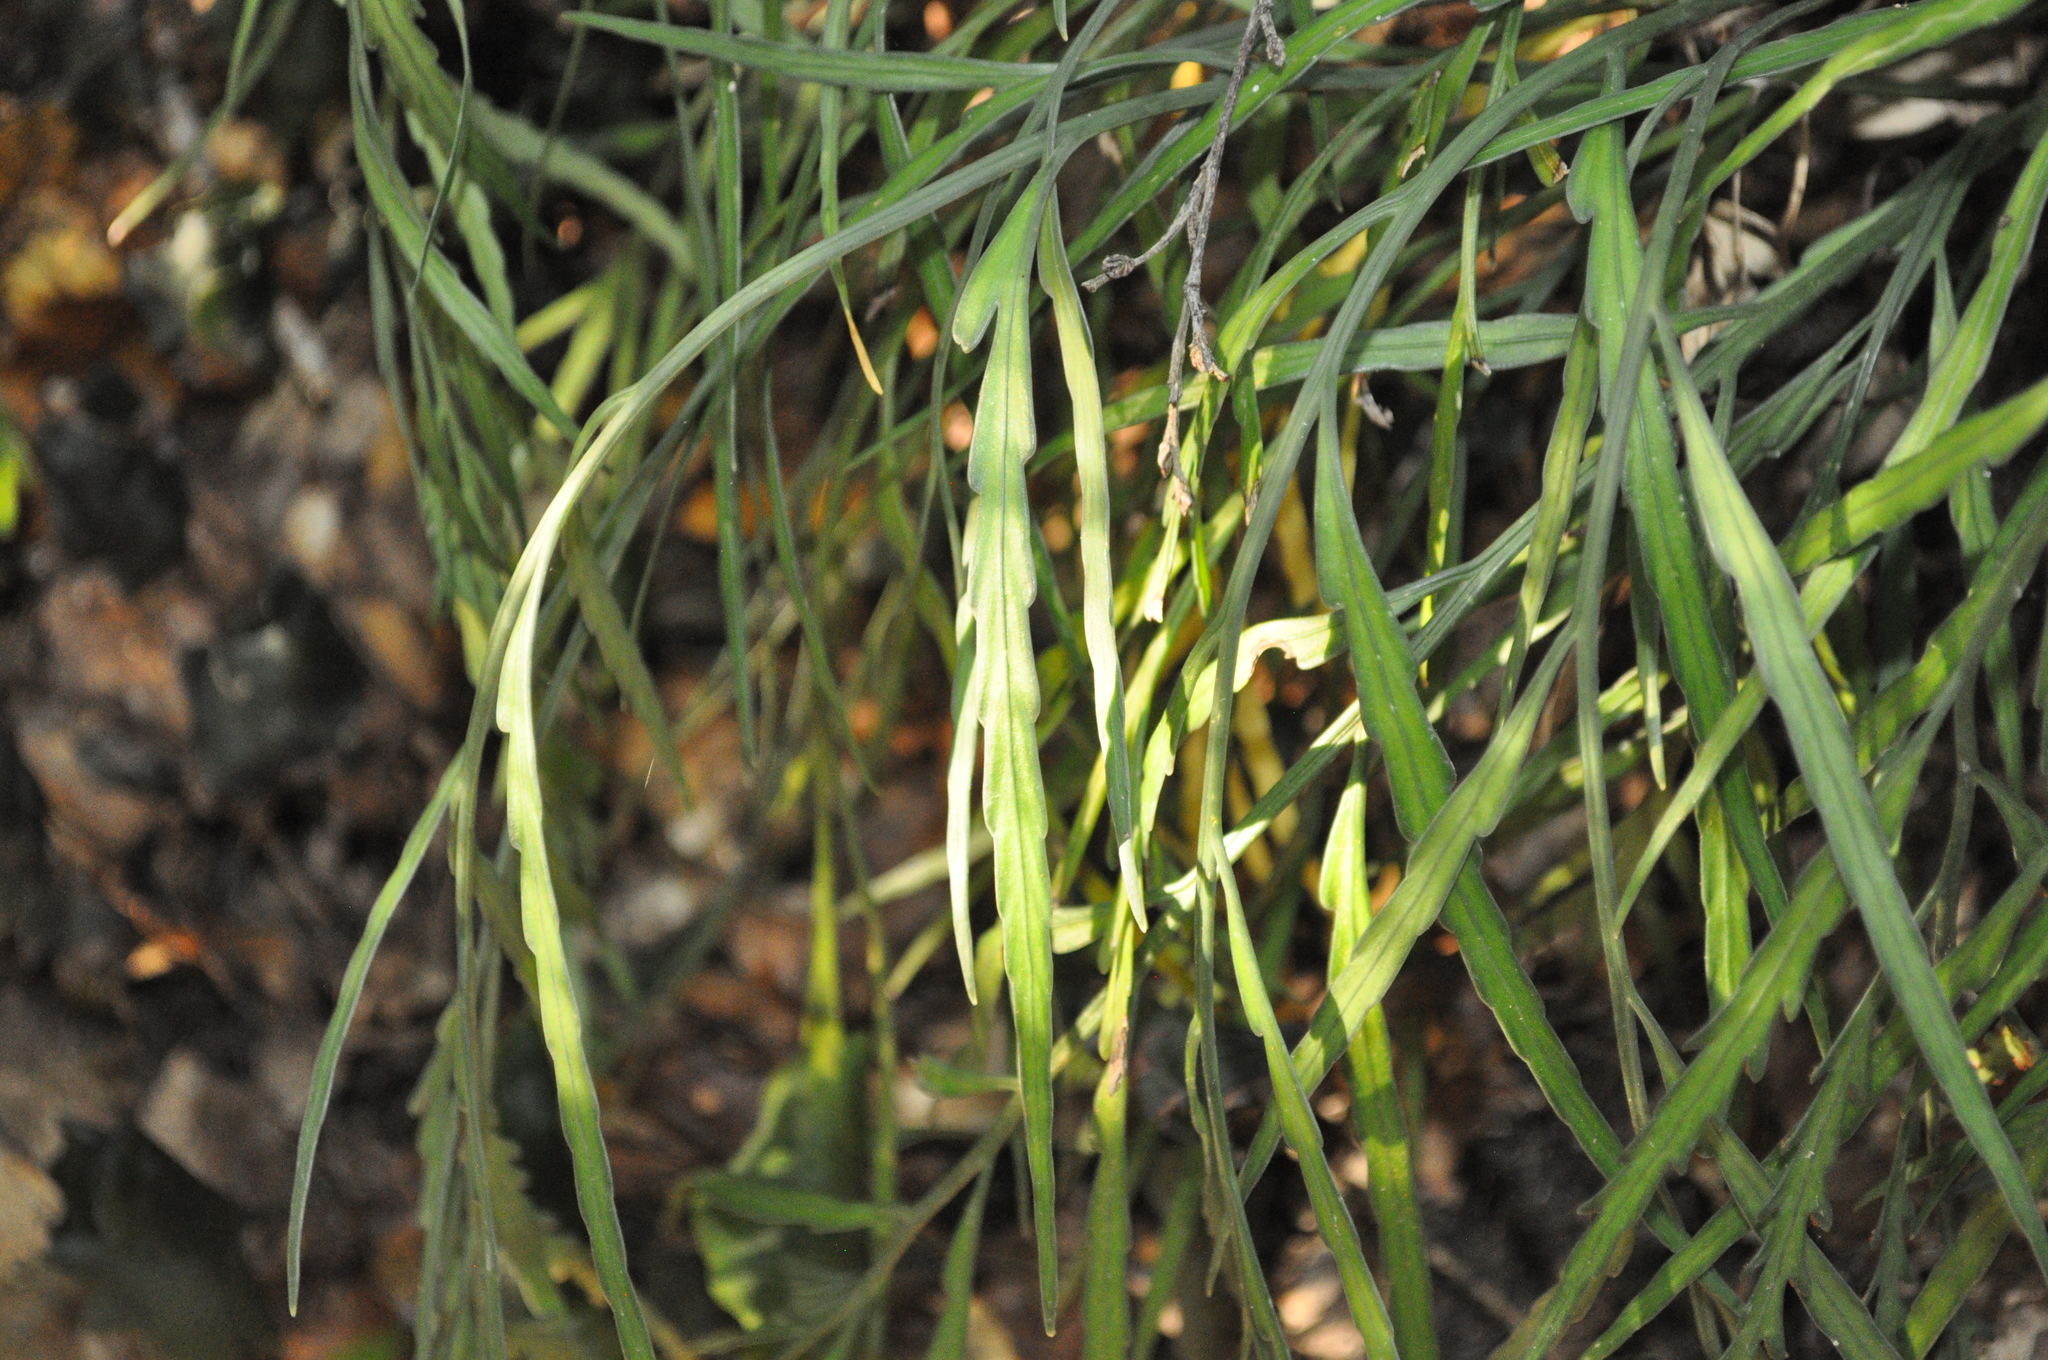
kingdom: Plantae
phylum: Tracheophyta
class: Polypodiopsida
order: Polypodiales
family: Aspleniaceae
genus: Asplenium
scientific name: Asplenium flaccidum
